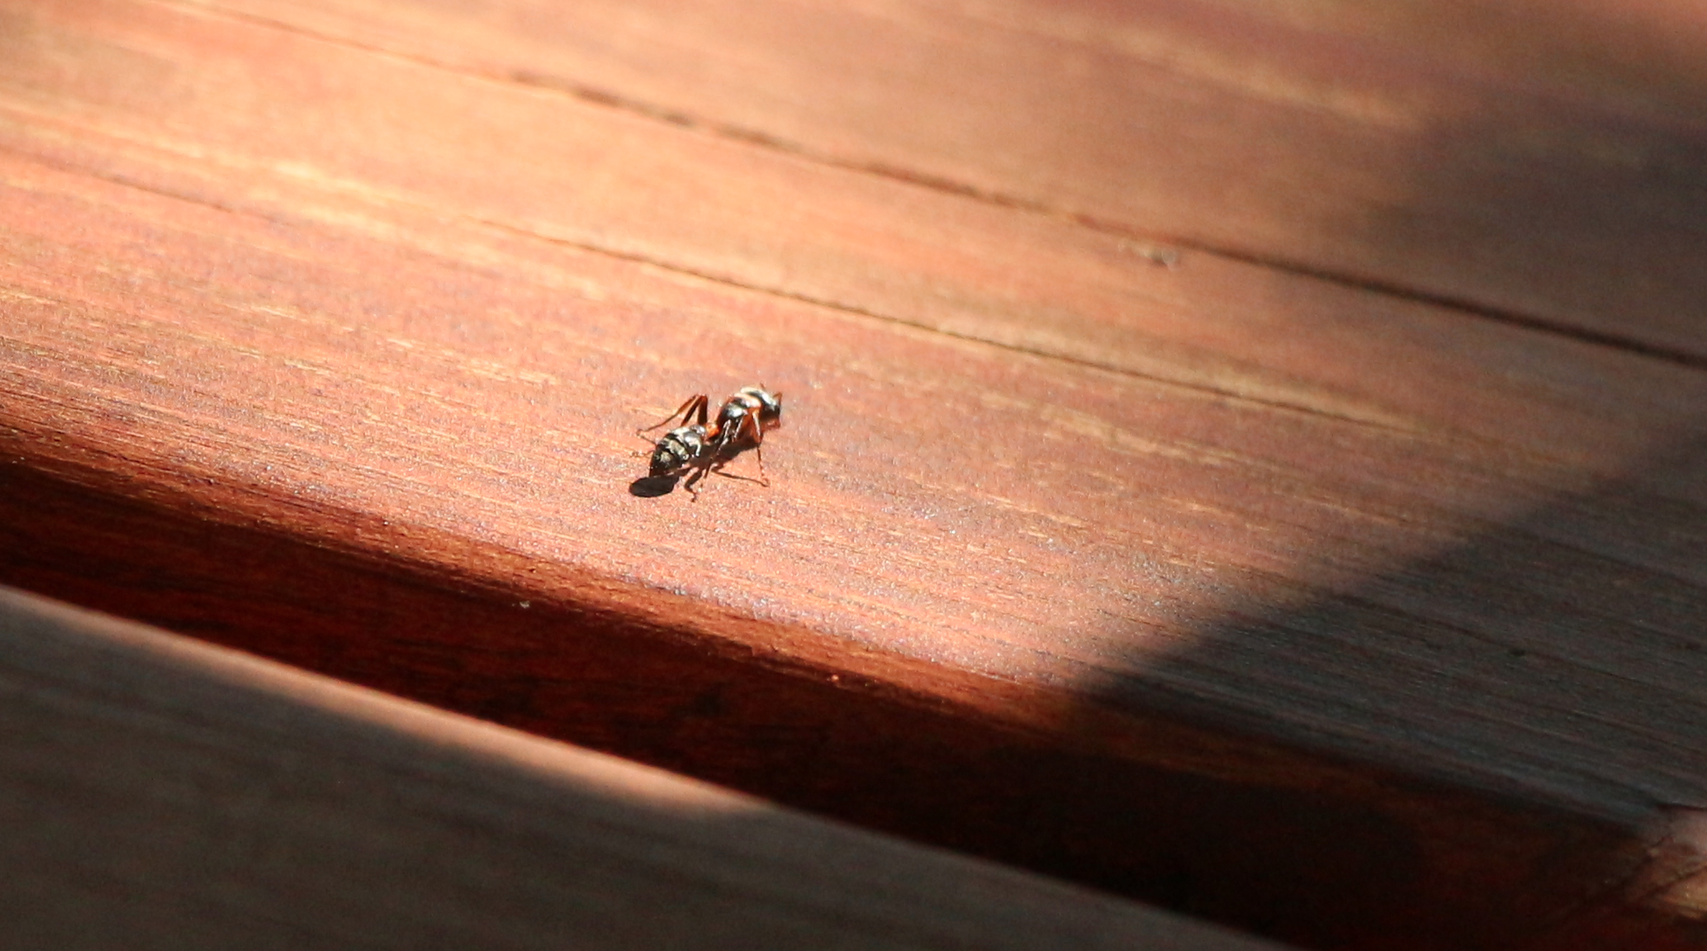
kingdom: Animalia
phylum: Arthropoda
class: Insecta
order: Hymenoptera
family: Formicidae
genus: Pseudomyrmex
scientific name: Pseudomyrmex gracilis
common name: Graceful twig ant
